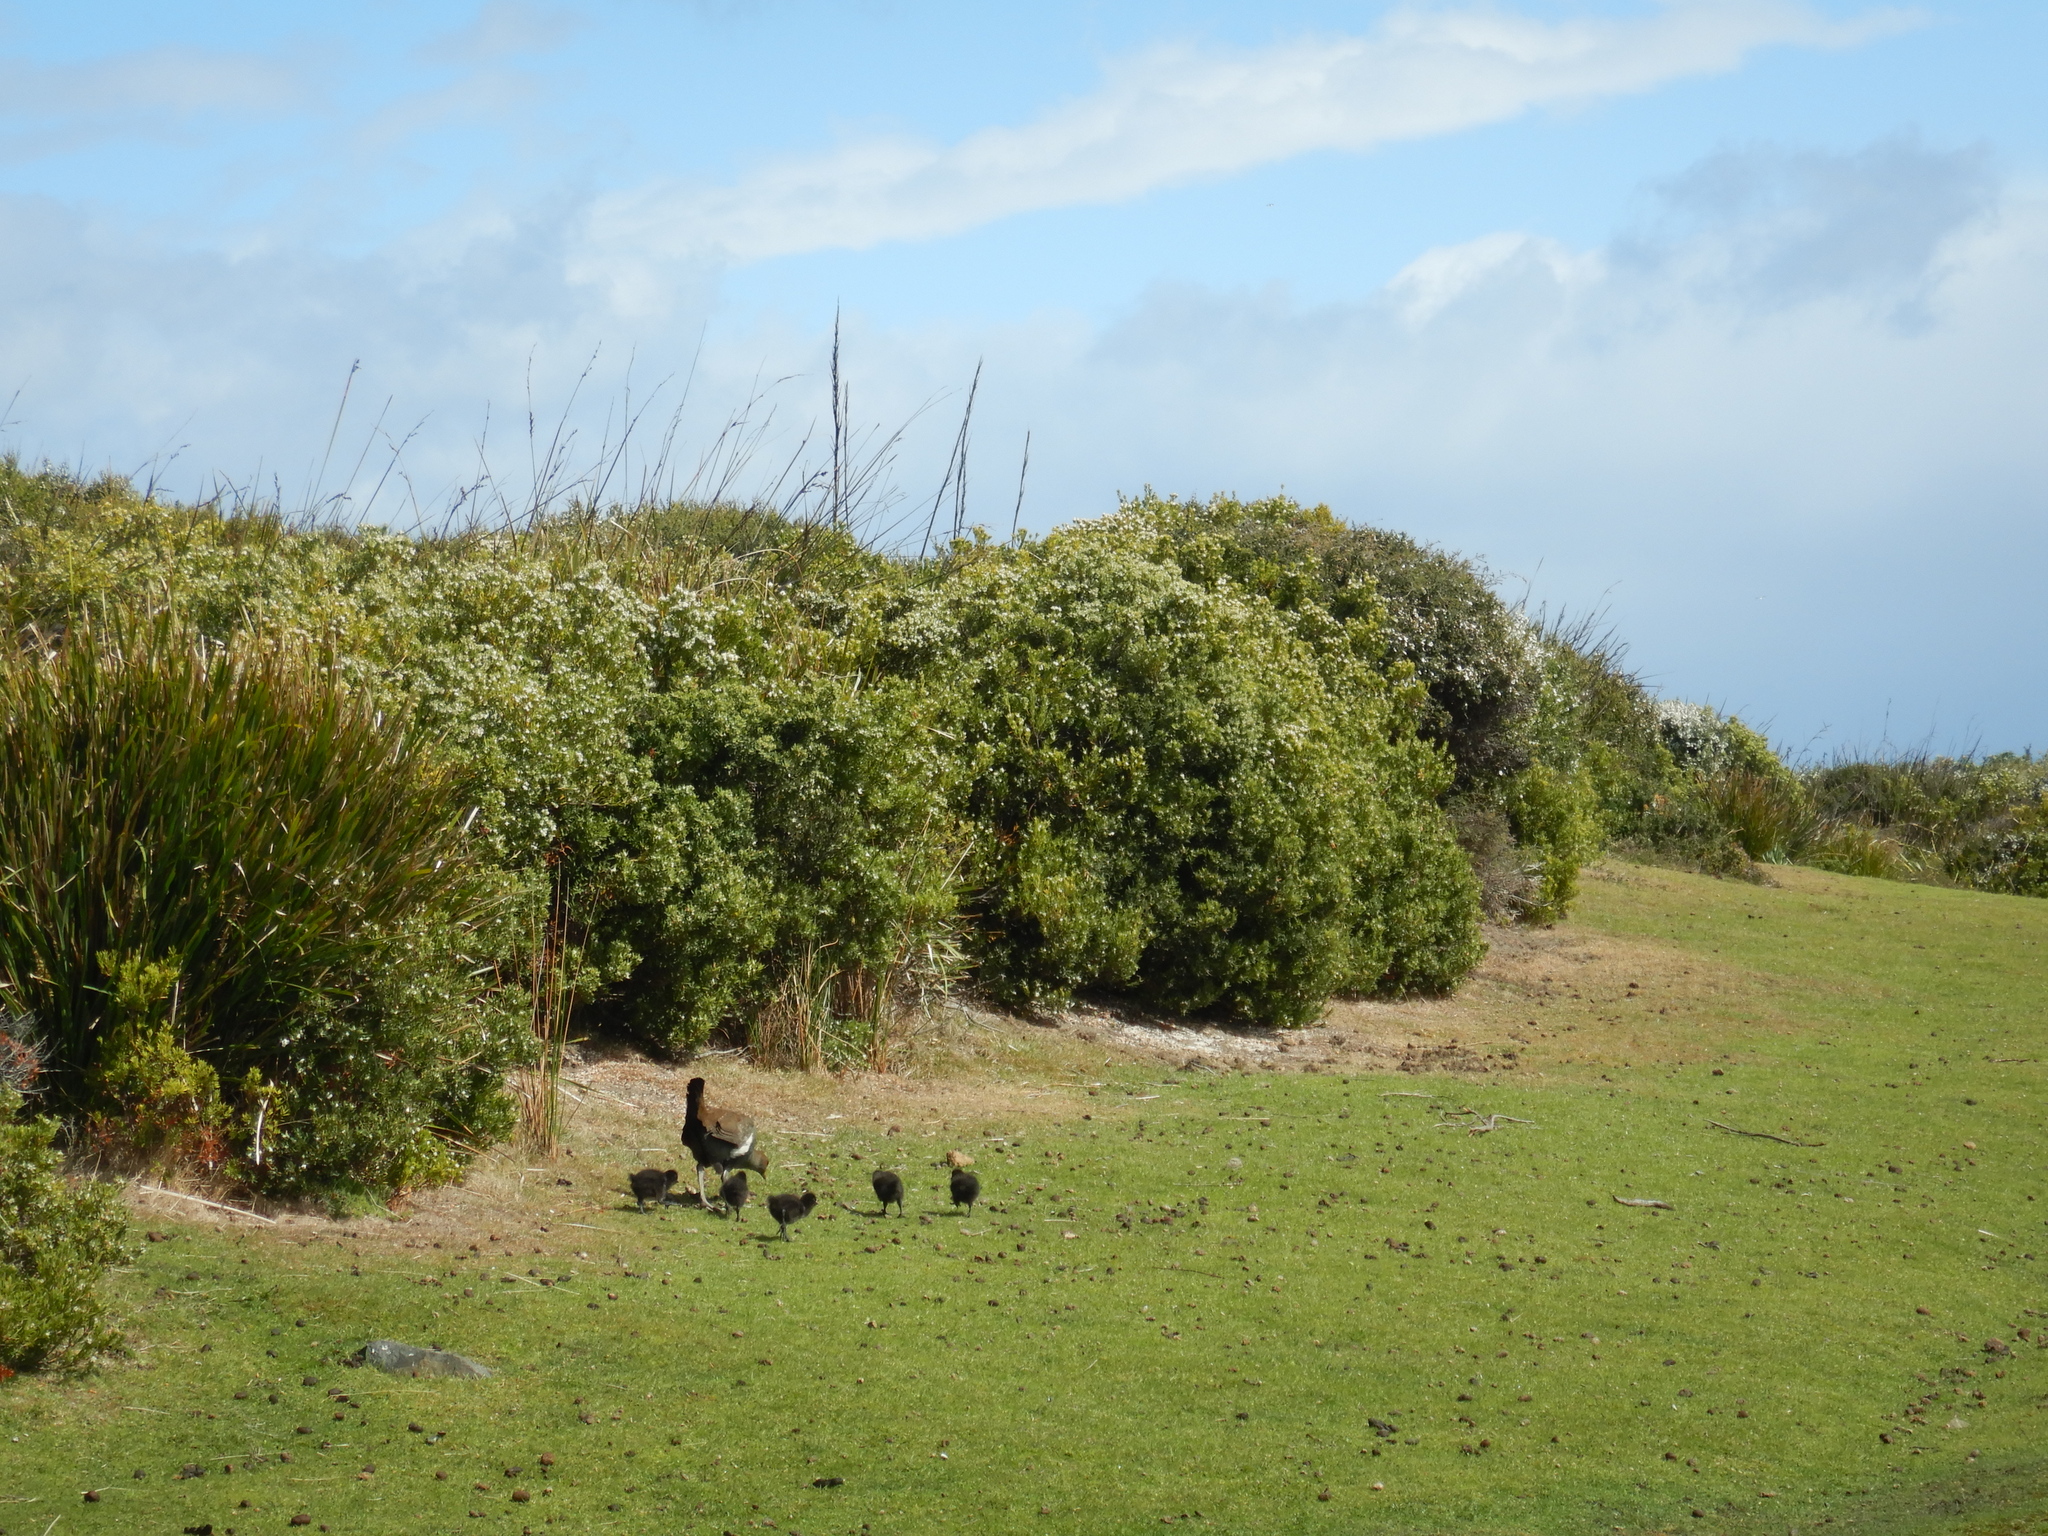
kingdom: Animalia
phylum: Chordata
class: Aves
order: Gruiformes
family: Rallidae
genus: Gallinula
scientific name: Gallinula mortierii
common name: Tasmanian nativehen
